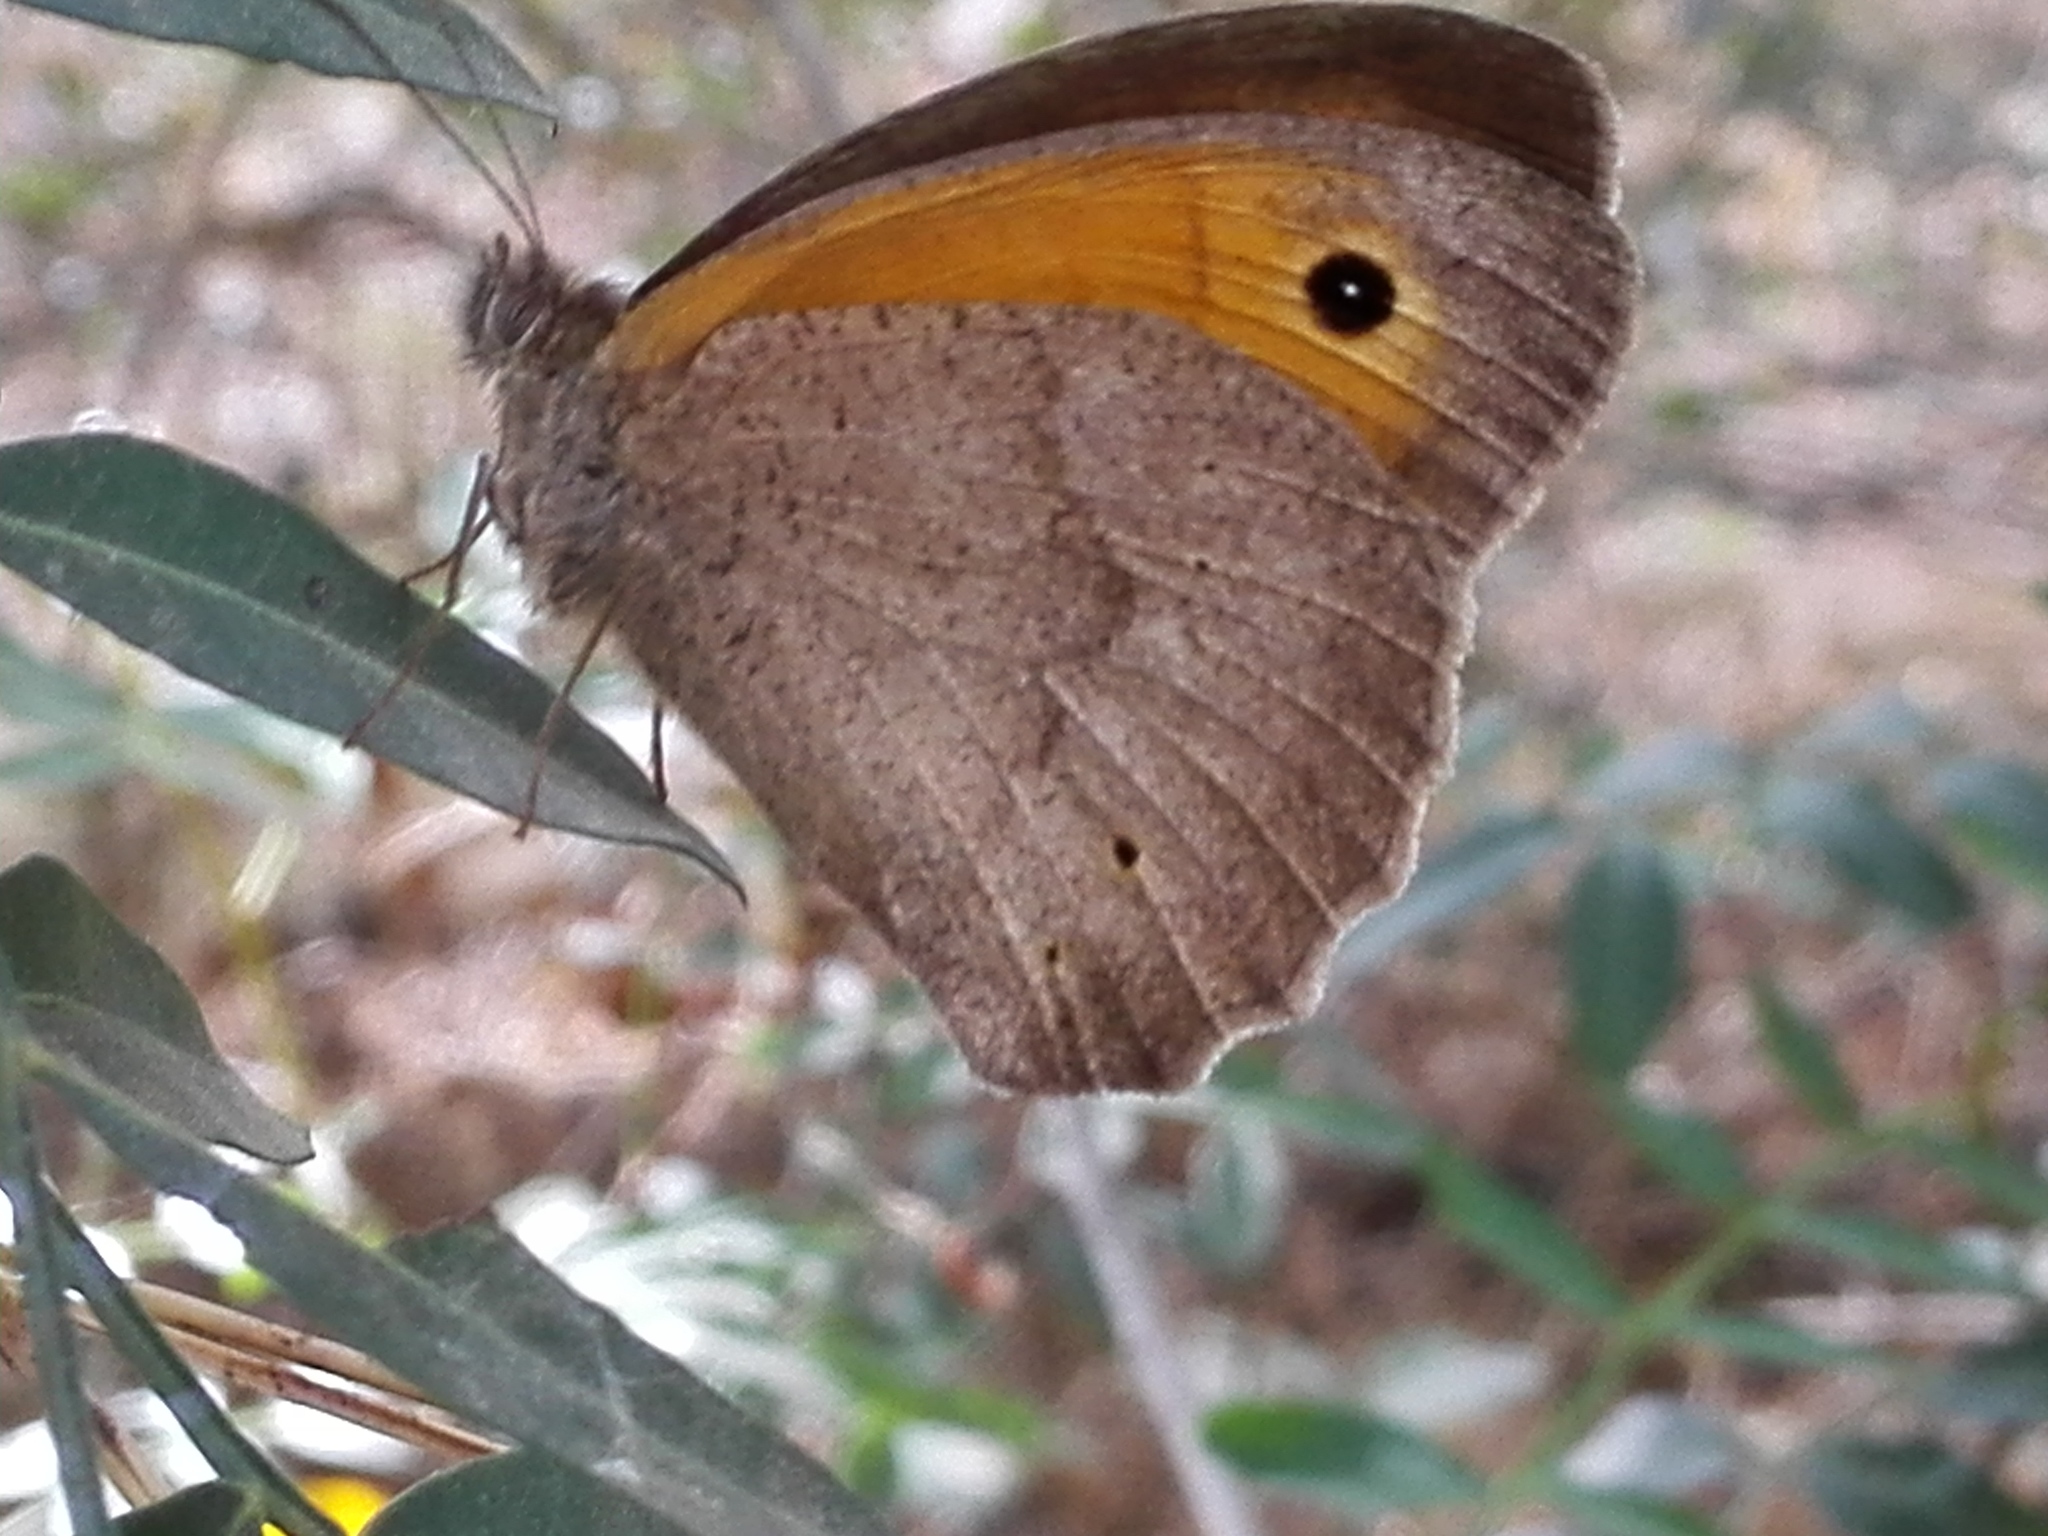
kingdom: Animalia
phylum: Arthropoda
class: Insecta
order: Lepidoptera
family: Nymphalidae
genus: Maniola
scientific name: Maniola jurtina
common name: Meadow brown
